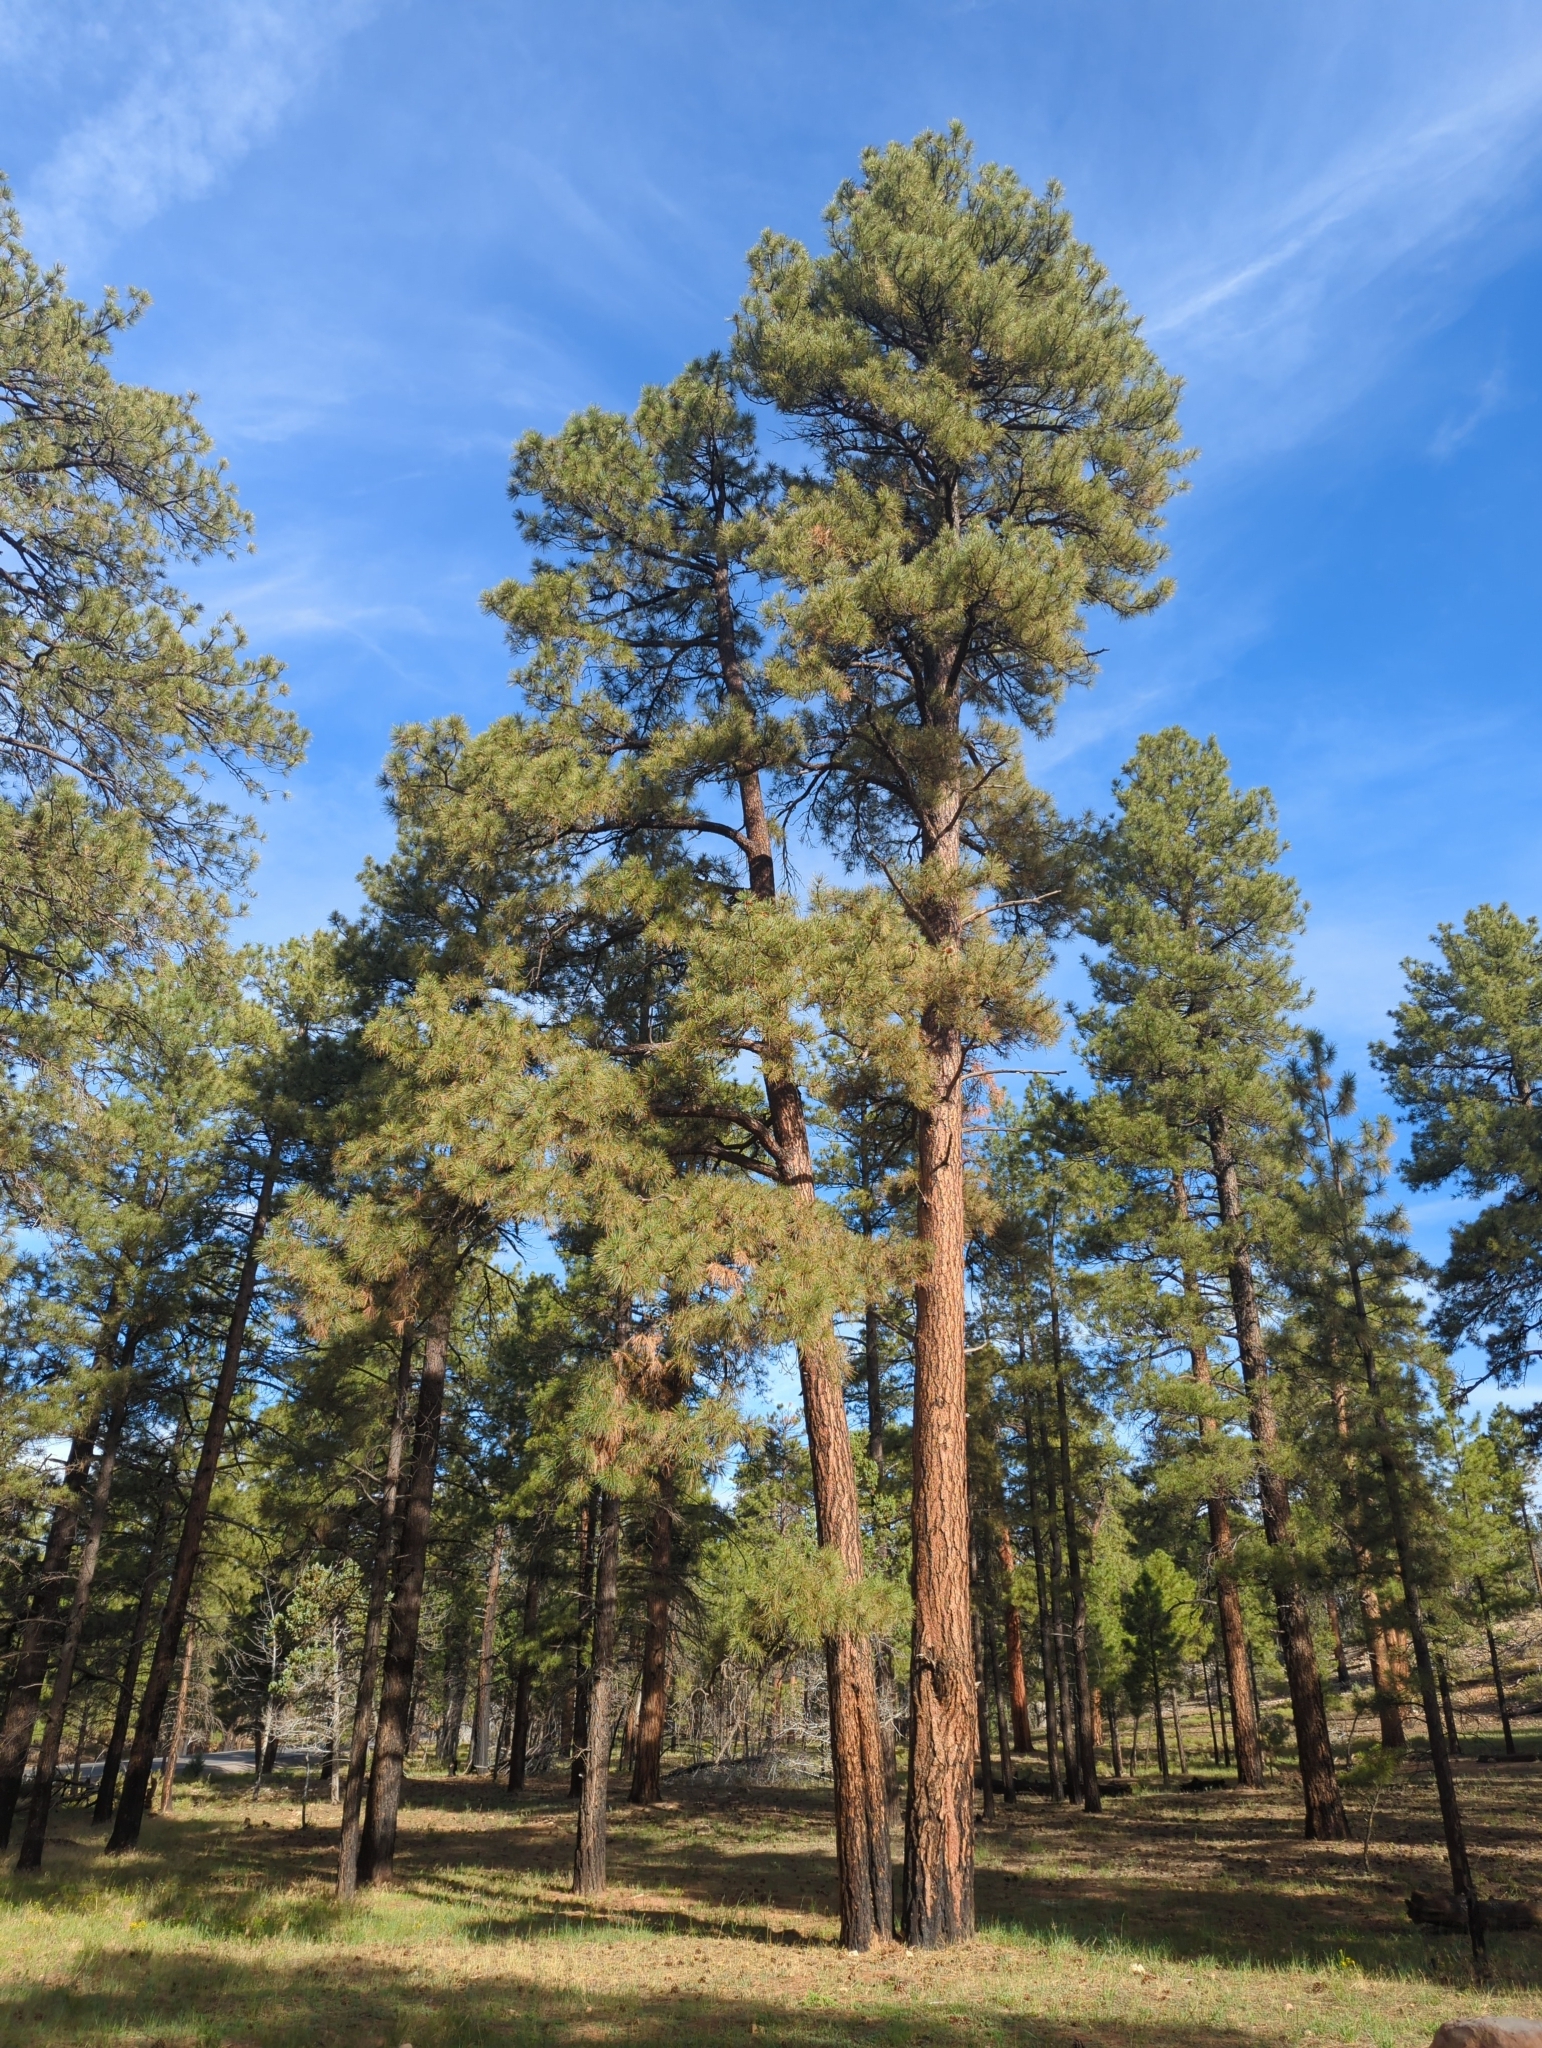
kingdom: Plantae
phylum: Tracheophyta
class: Pinopsida
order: Pinales
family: Pinaceae
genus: Pinus
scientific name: Pinus ponderosa
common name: Western yellow-pine
